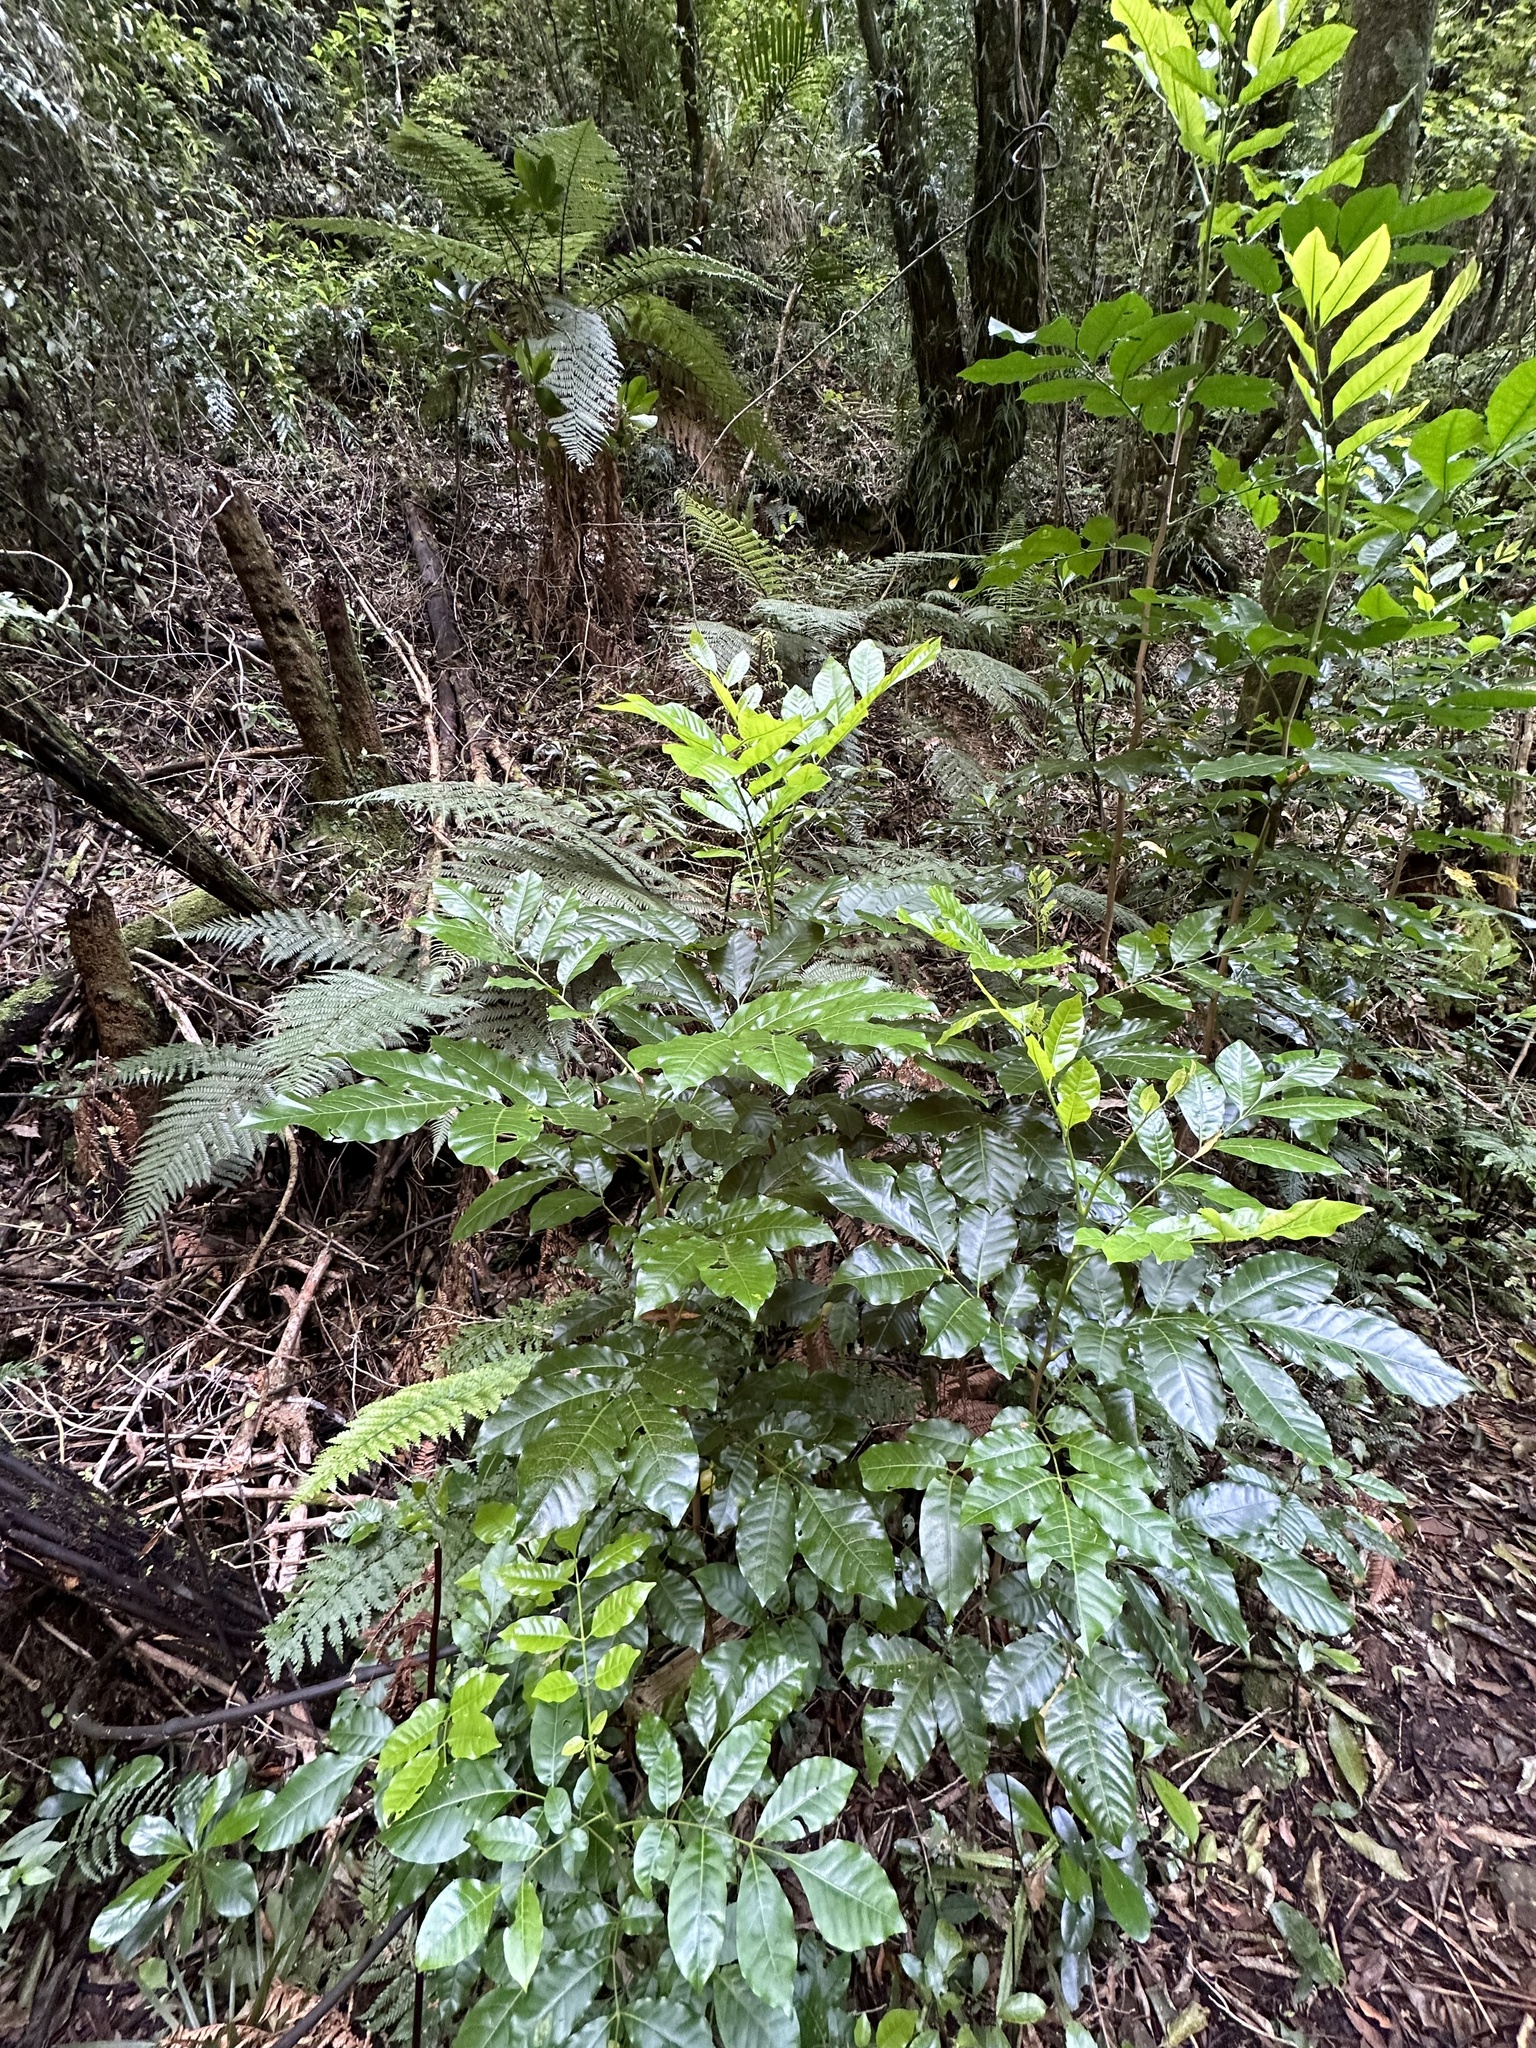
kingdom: Plantae
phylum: Tracheophyta
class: Magnoliopsida
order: Sapindales
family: Meliaceae
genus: Didymocheton
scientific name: Didymocheton spectabilis
